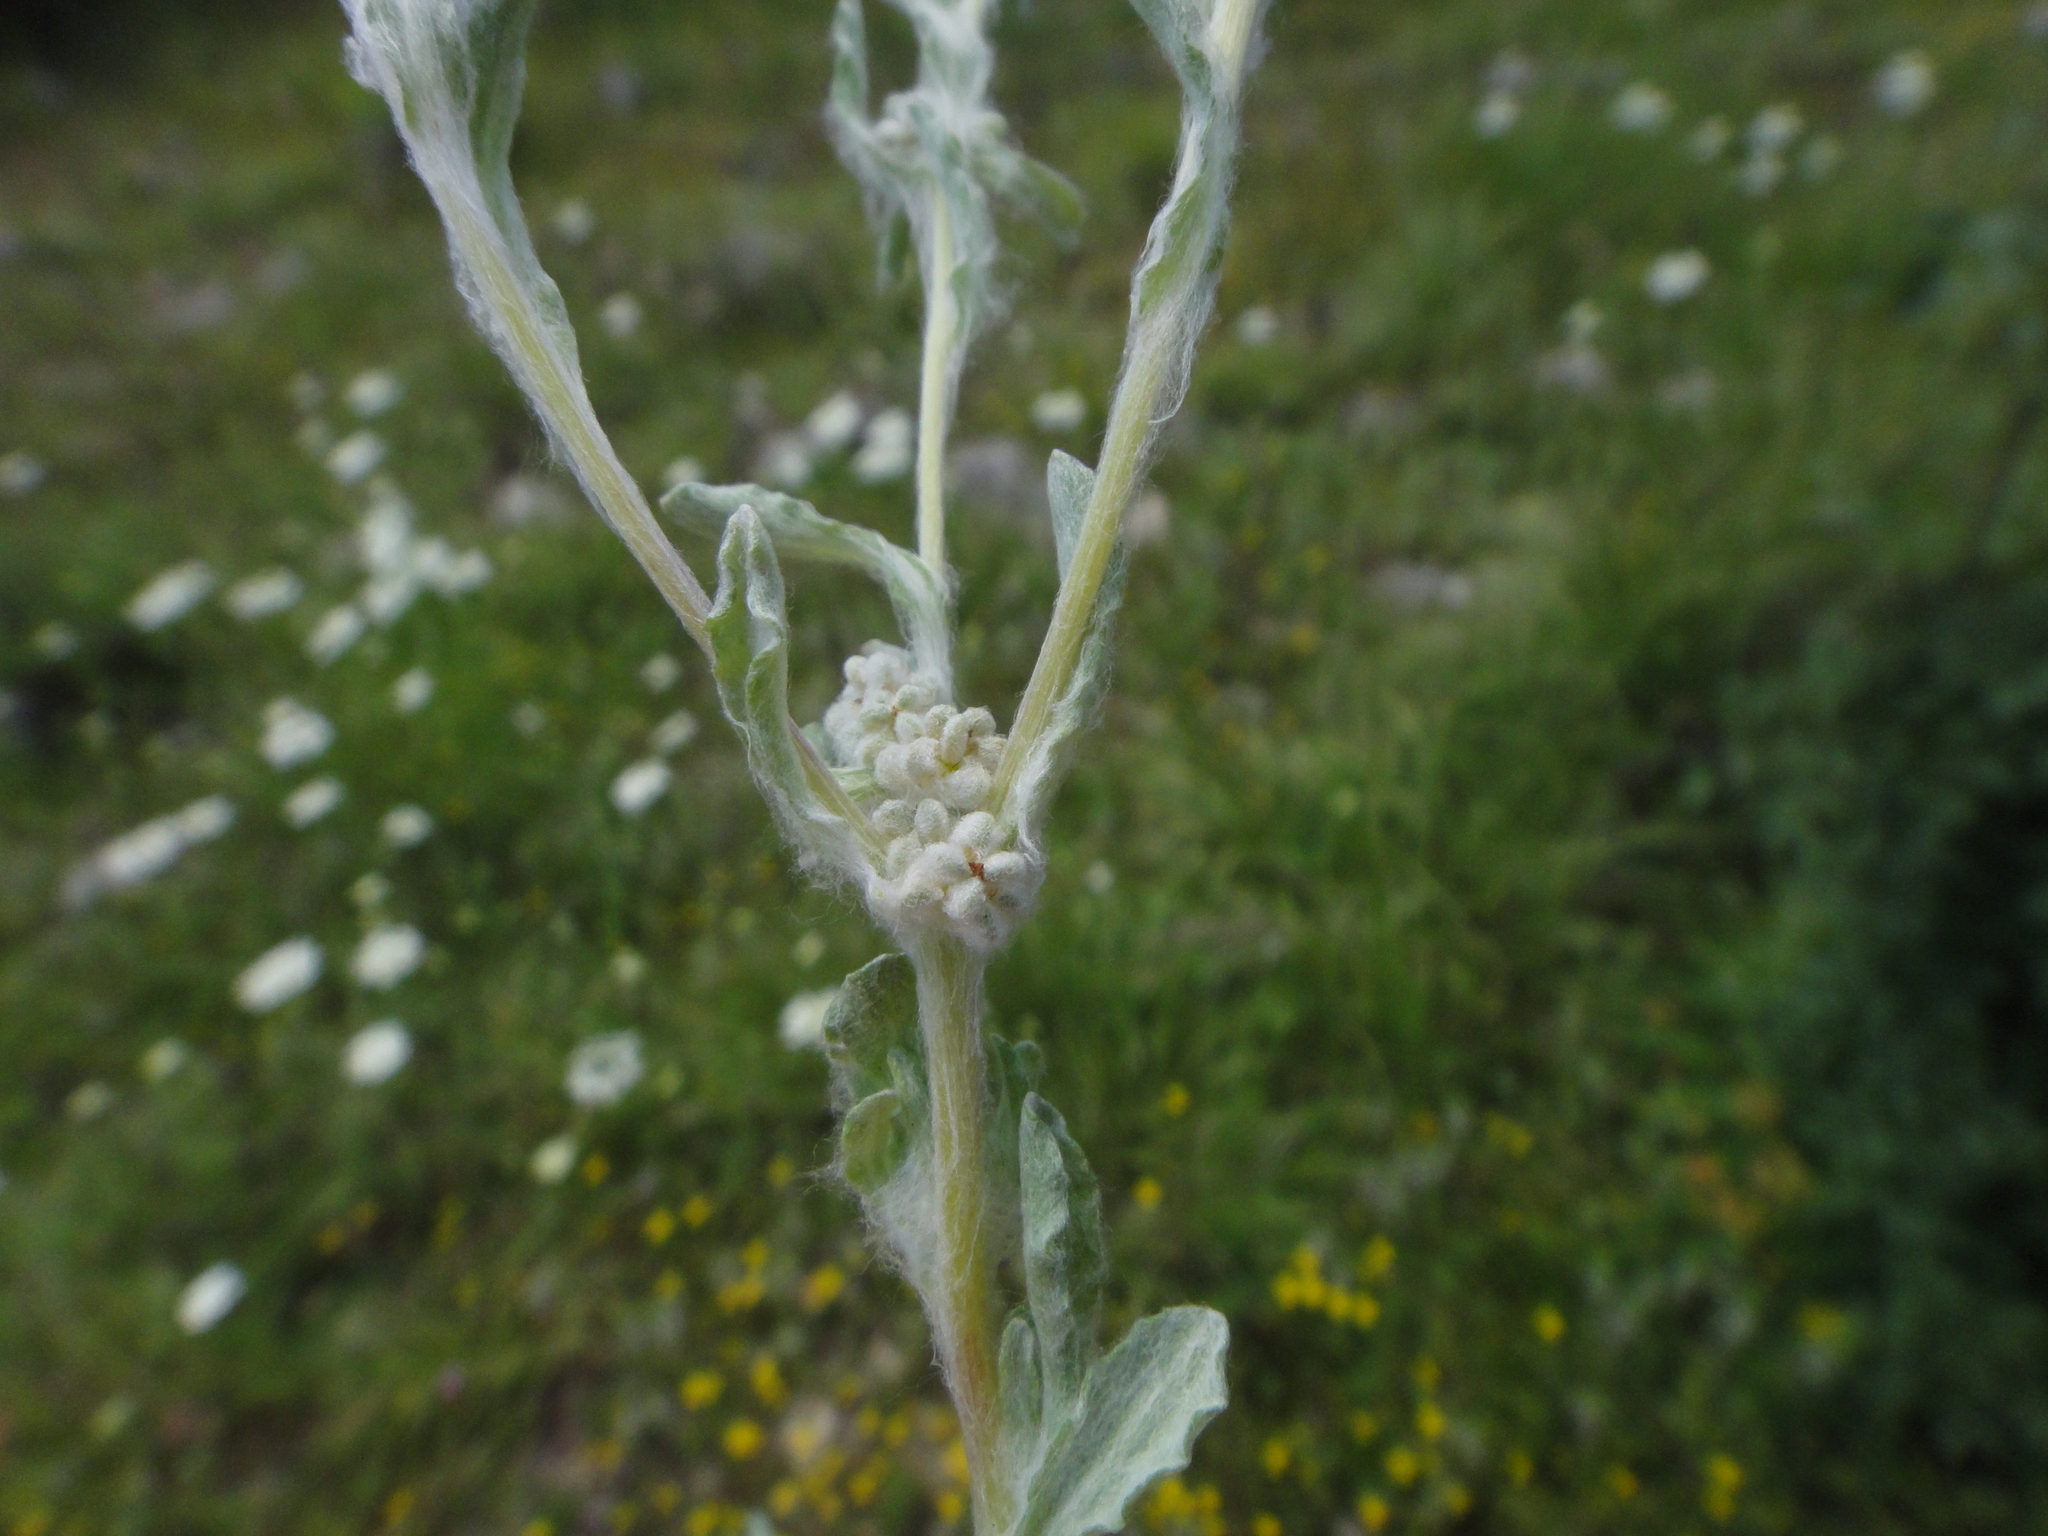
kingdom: Plantae
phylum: Tracheophyta
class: Magnoliopsida
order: Asterales
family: Asteraceae
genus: Filago
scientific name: Filago pyramidata
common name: Broad-leaved cudweed
